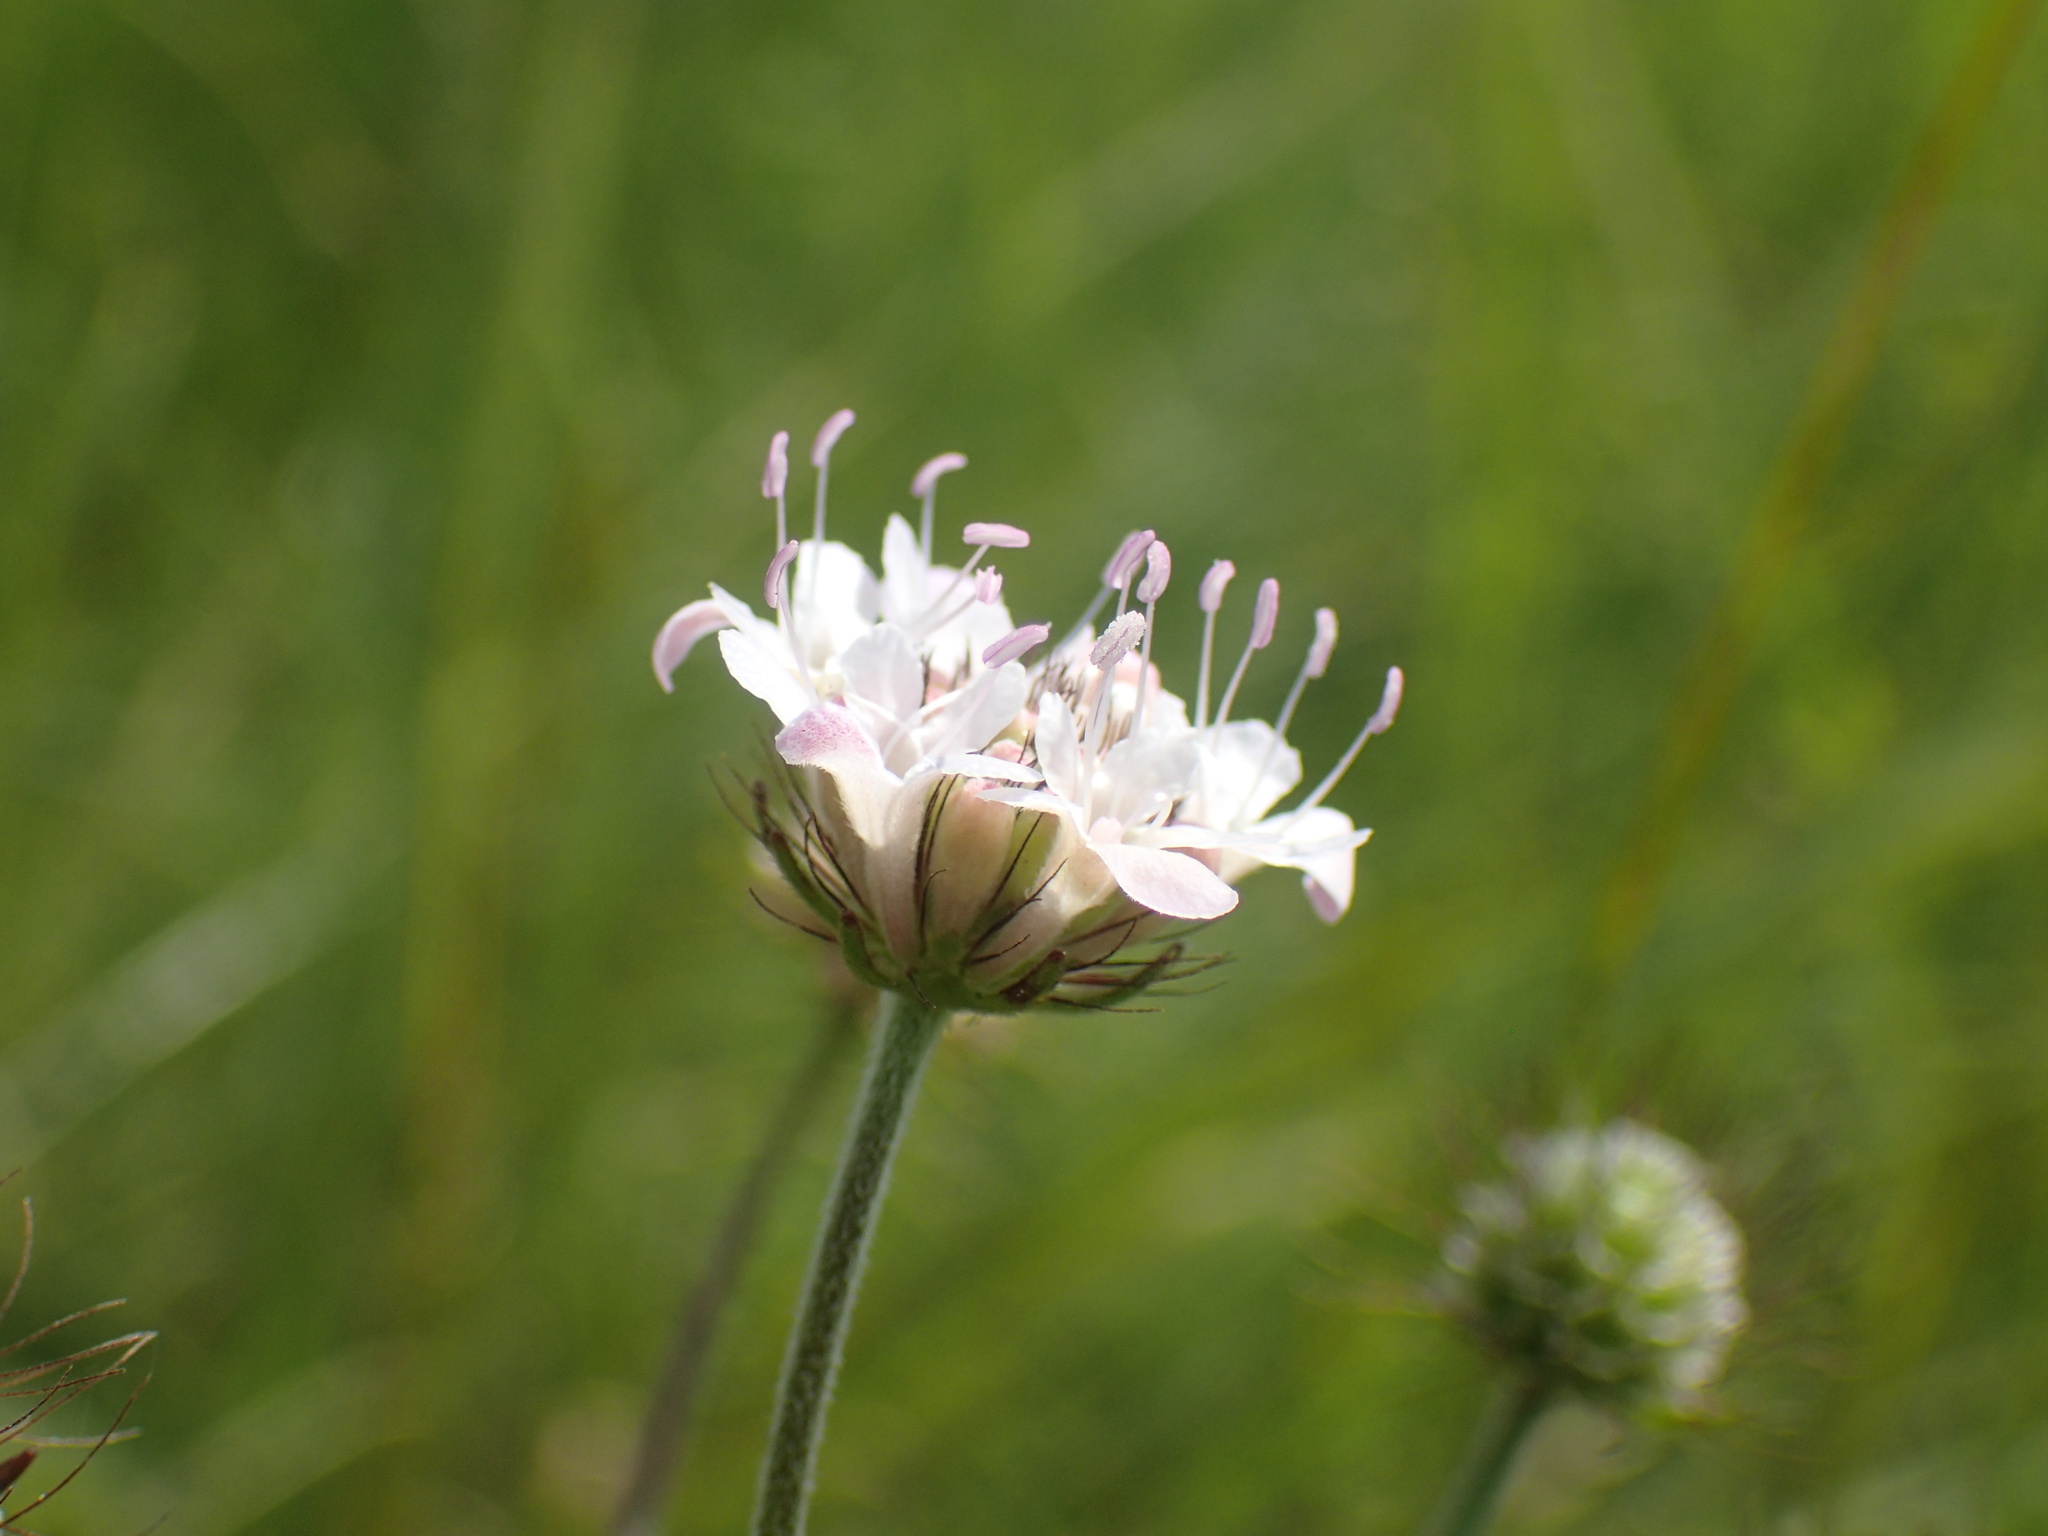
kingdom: Plantae
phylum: Tracheophyta
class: Magnoliopsida
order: Dipsacales
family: Caprifoliaceae
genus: Scabiosa
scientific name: Scabiosa columbaria
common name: Small scabious
